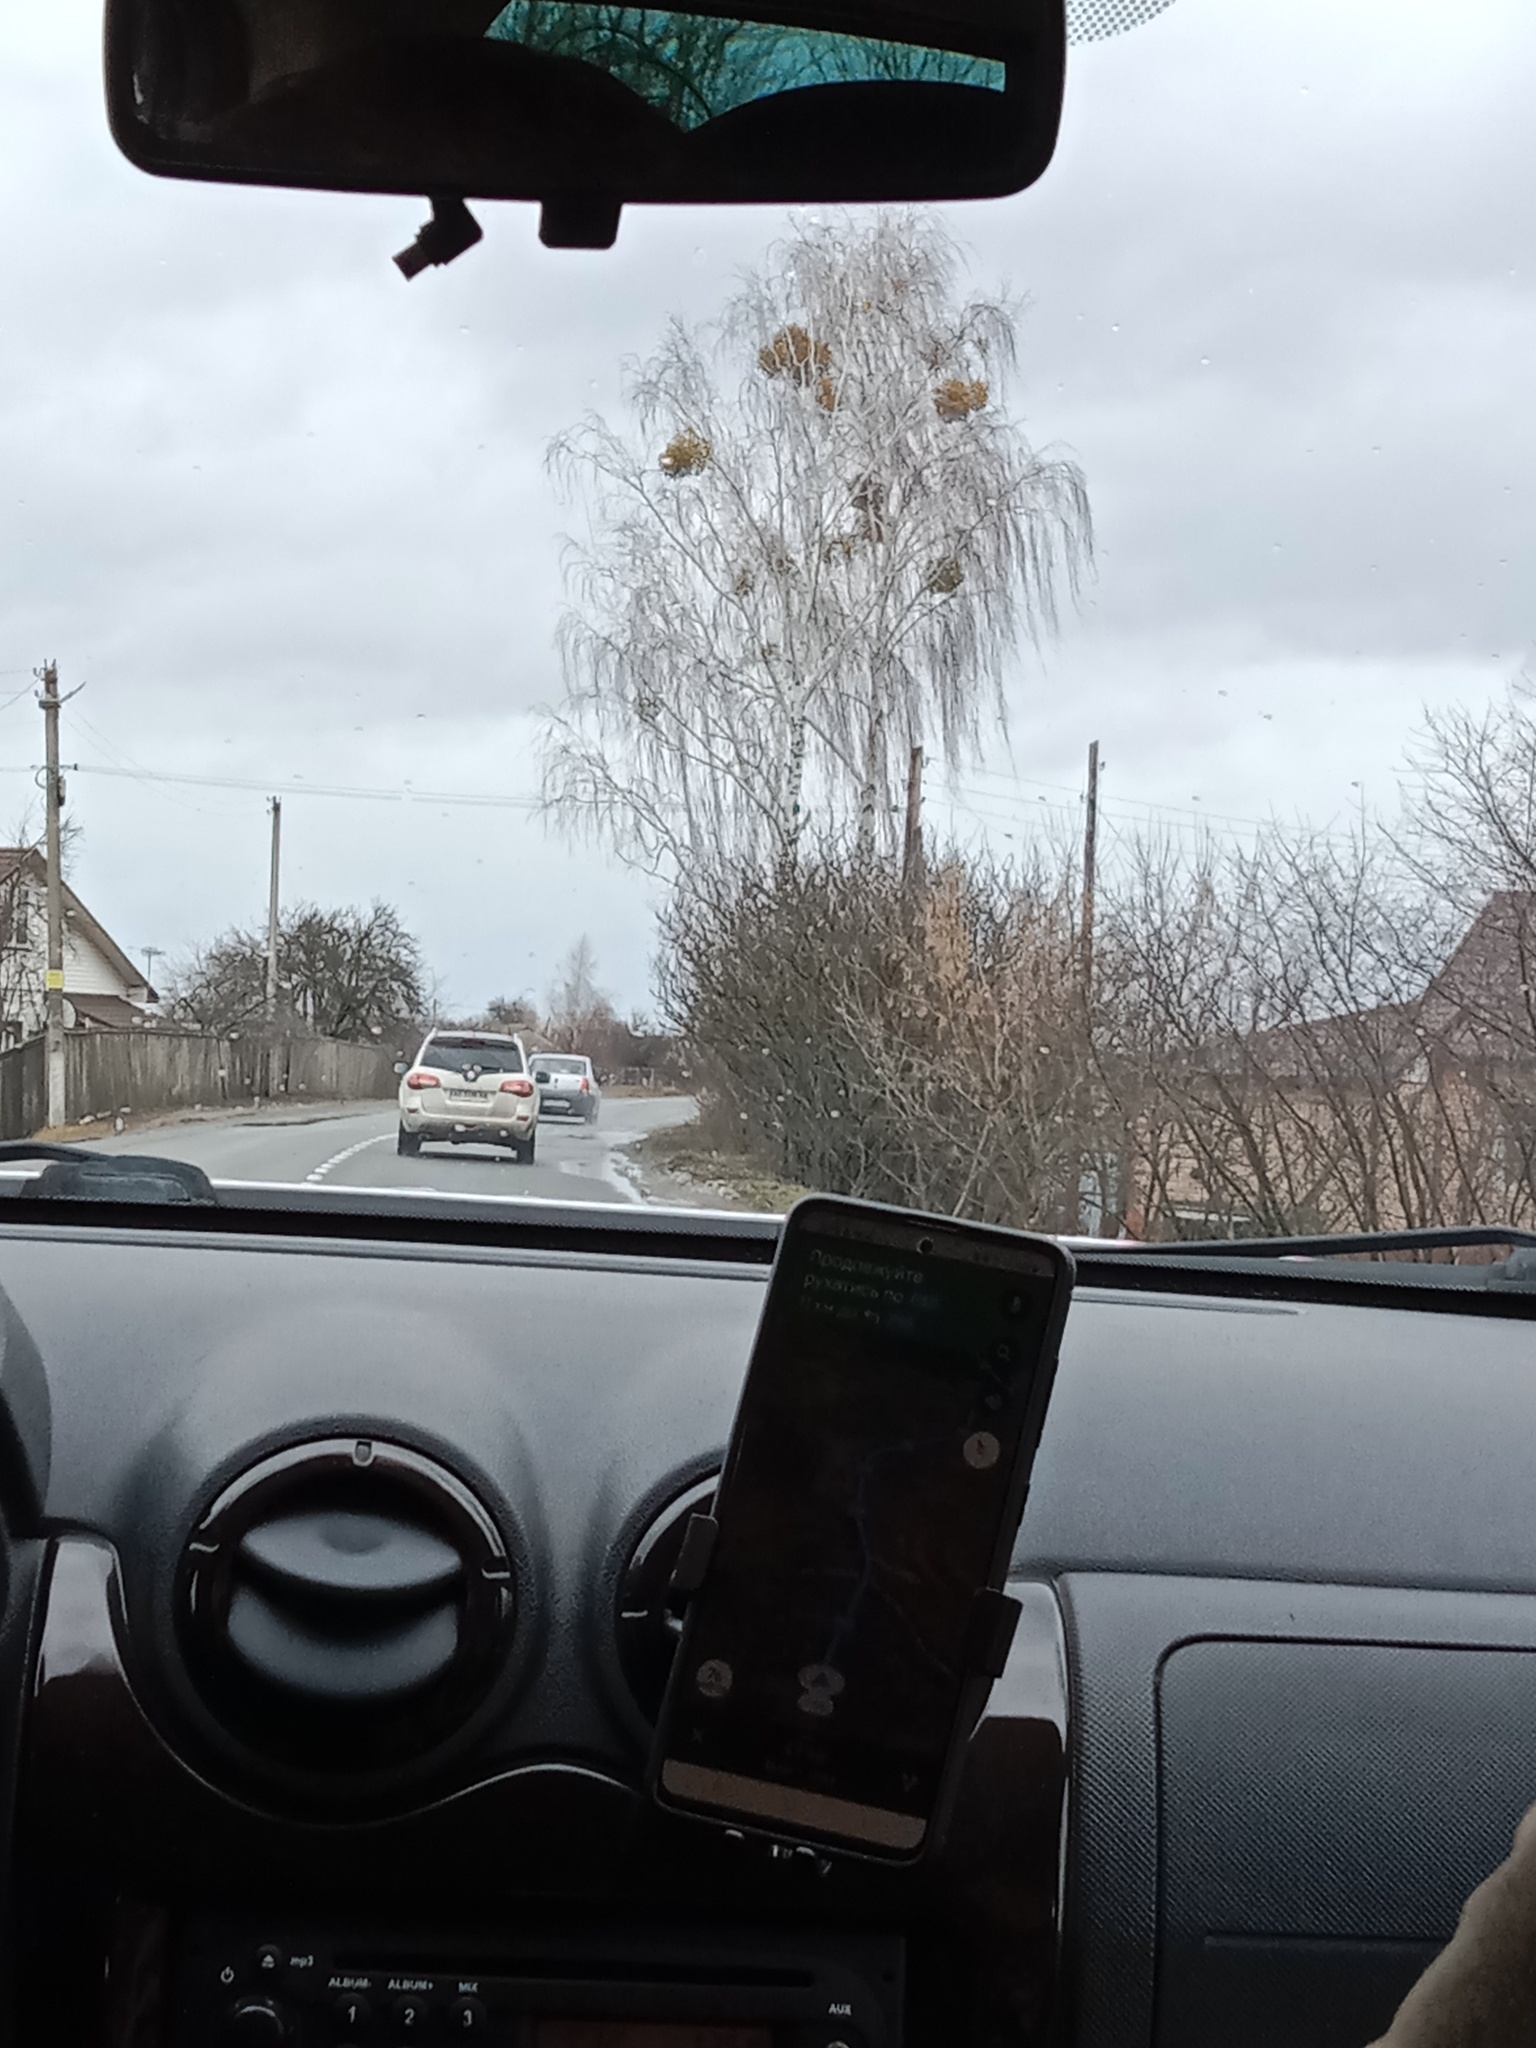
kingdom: Plantae
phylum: Tracheophyta
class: Magnoliopsida
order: Santalales
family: Viscaceae
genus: Viscum
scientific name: Viscum album
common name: Mistletoe
